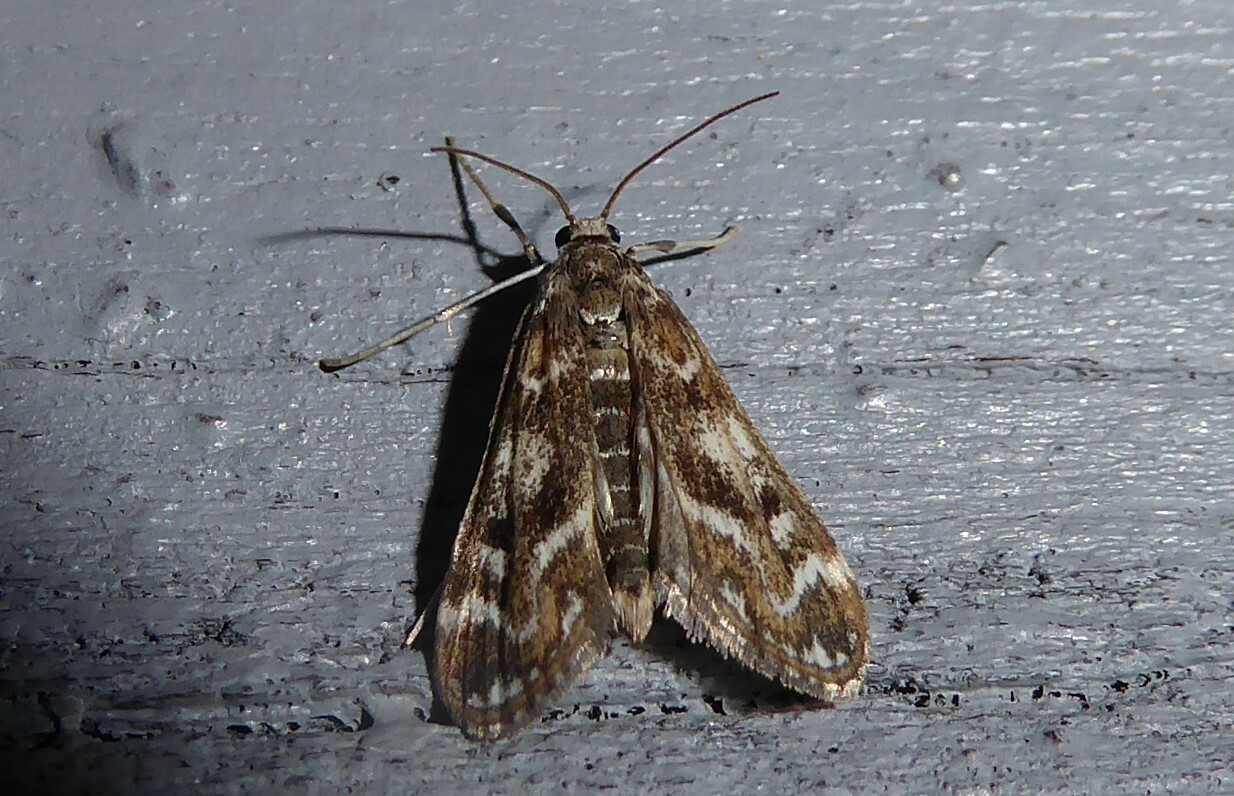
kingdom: Animalia
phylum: Arthropoda
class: Insecta
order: Lepidoptera
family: Crambidae
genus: Hygraula
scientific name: Hygraula nitens
